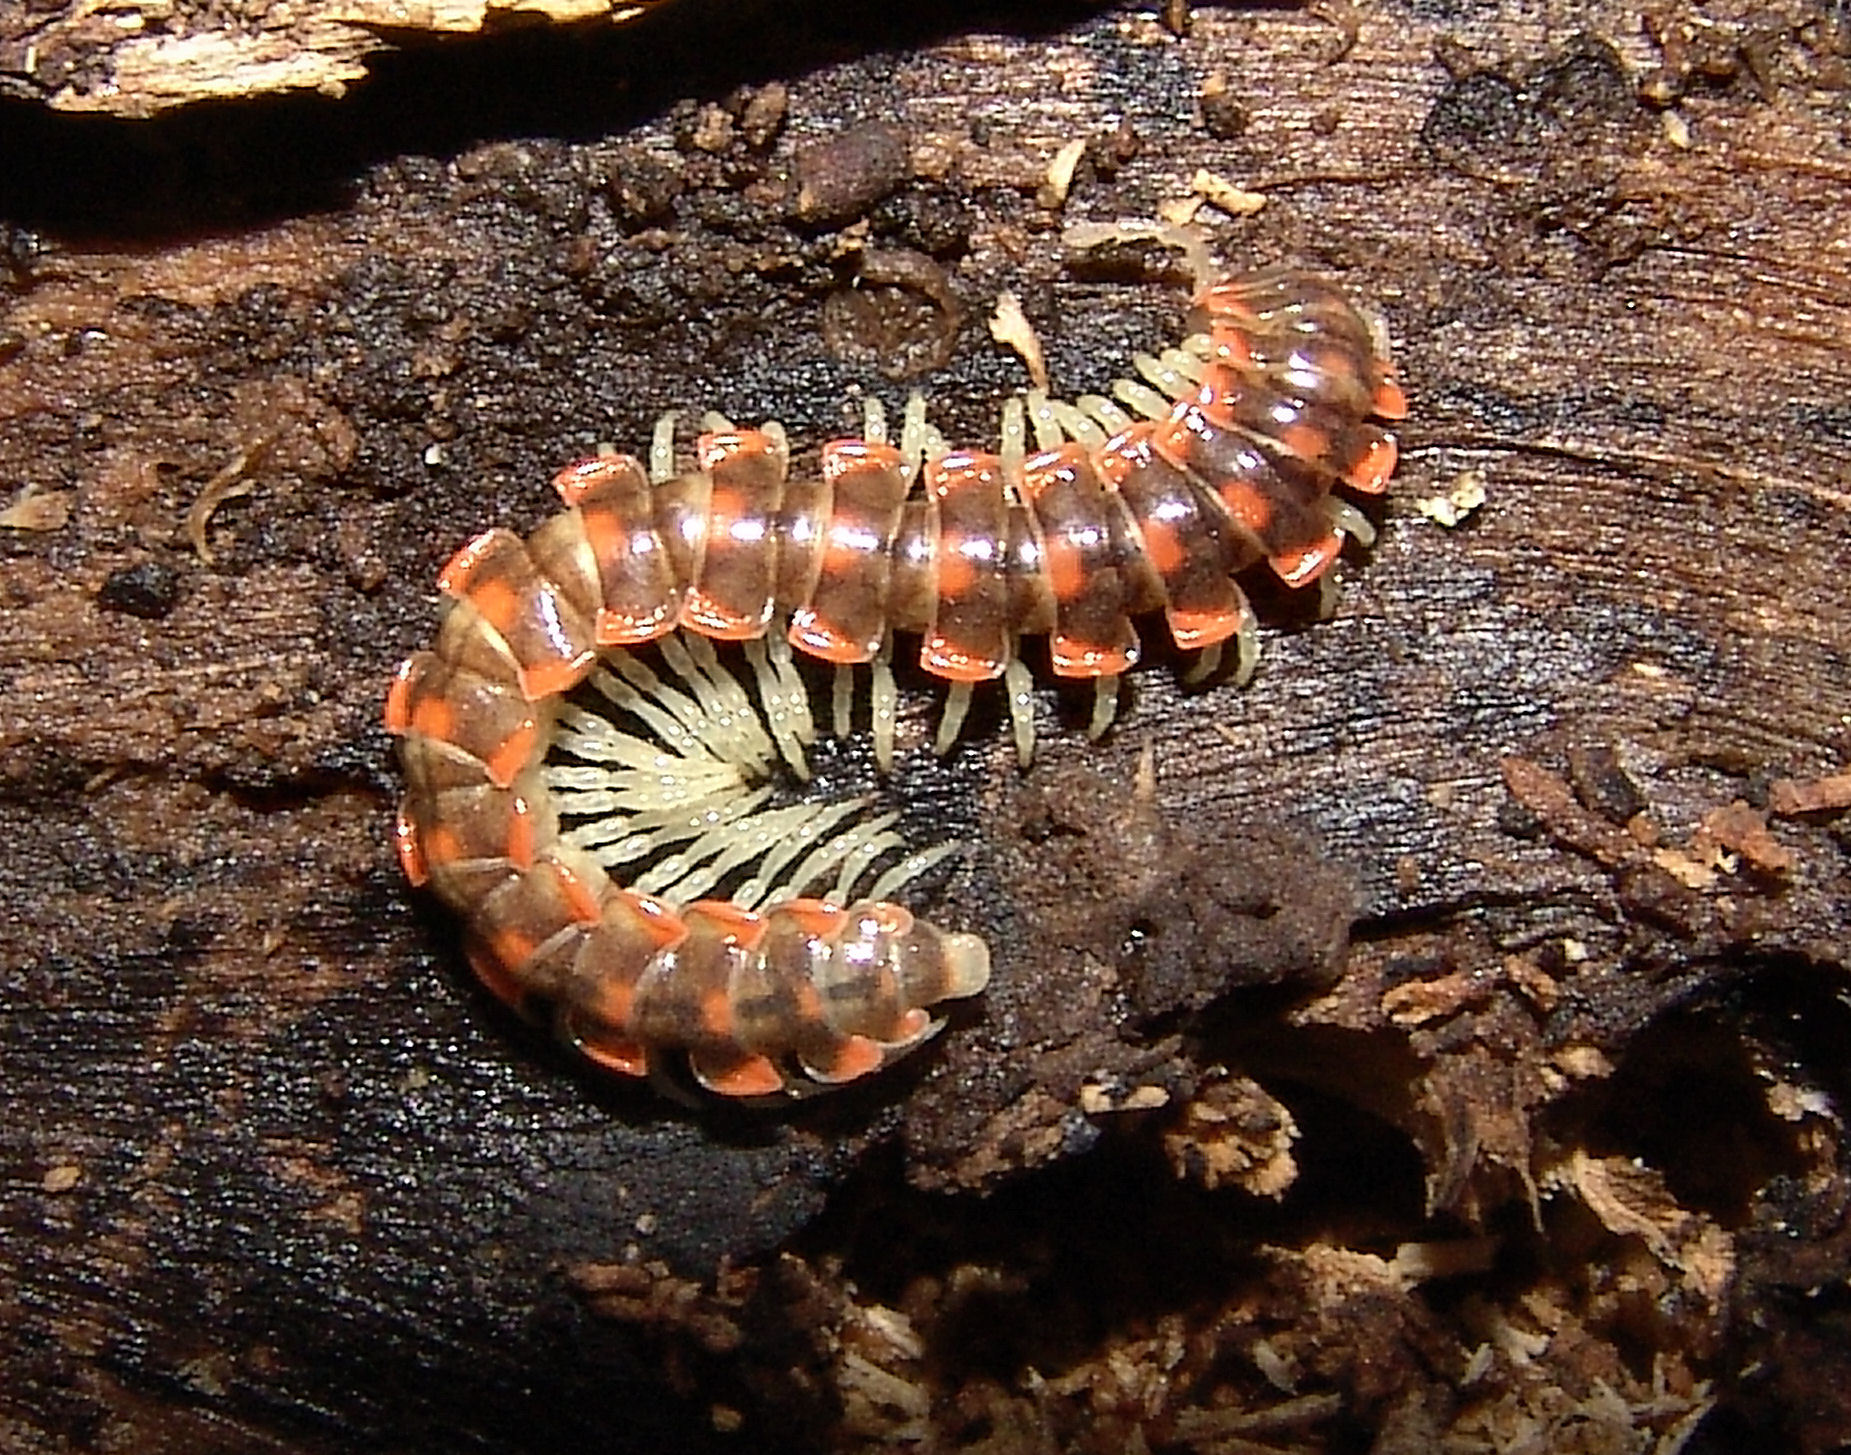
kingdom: Animalia
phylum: Arthropoda
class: Diplopoda
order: Polydesmida
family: Xystodesmidae
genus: Euryurus
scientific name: Euryurus evides
